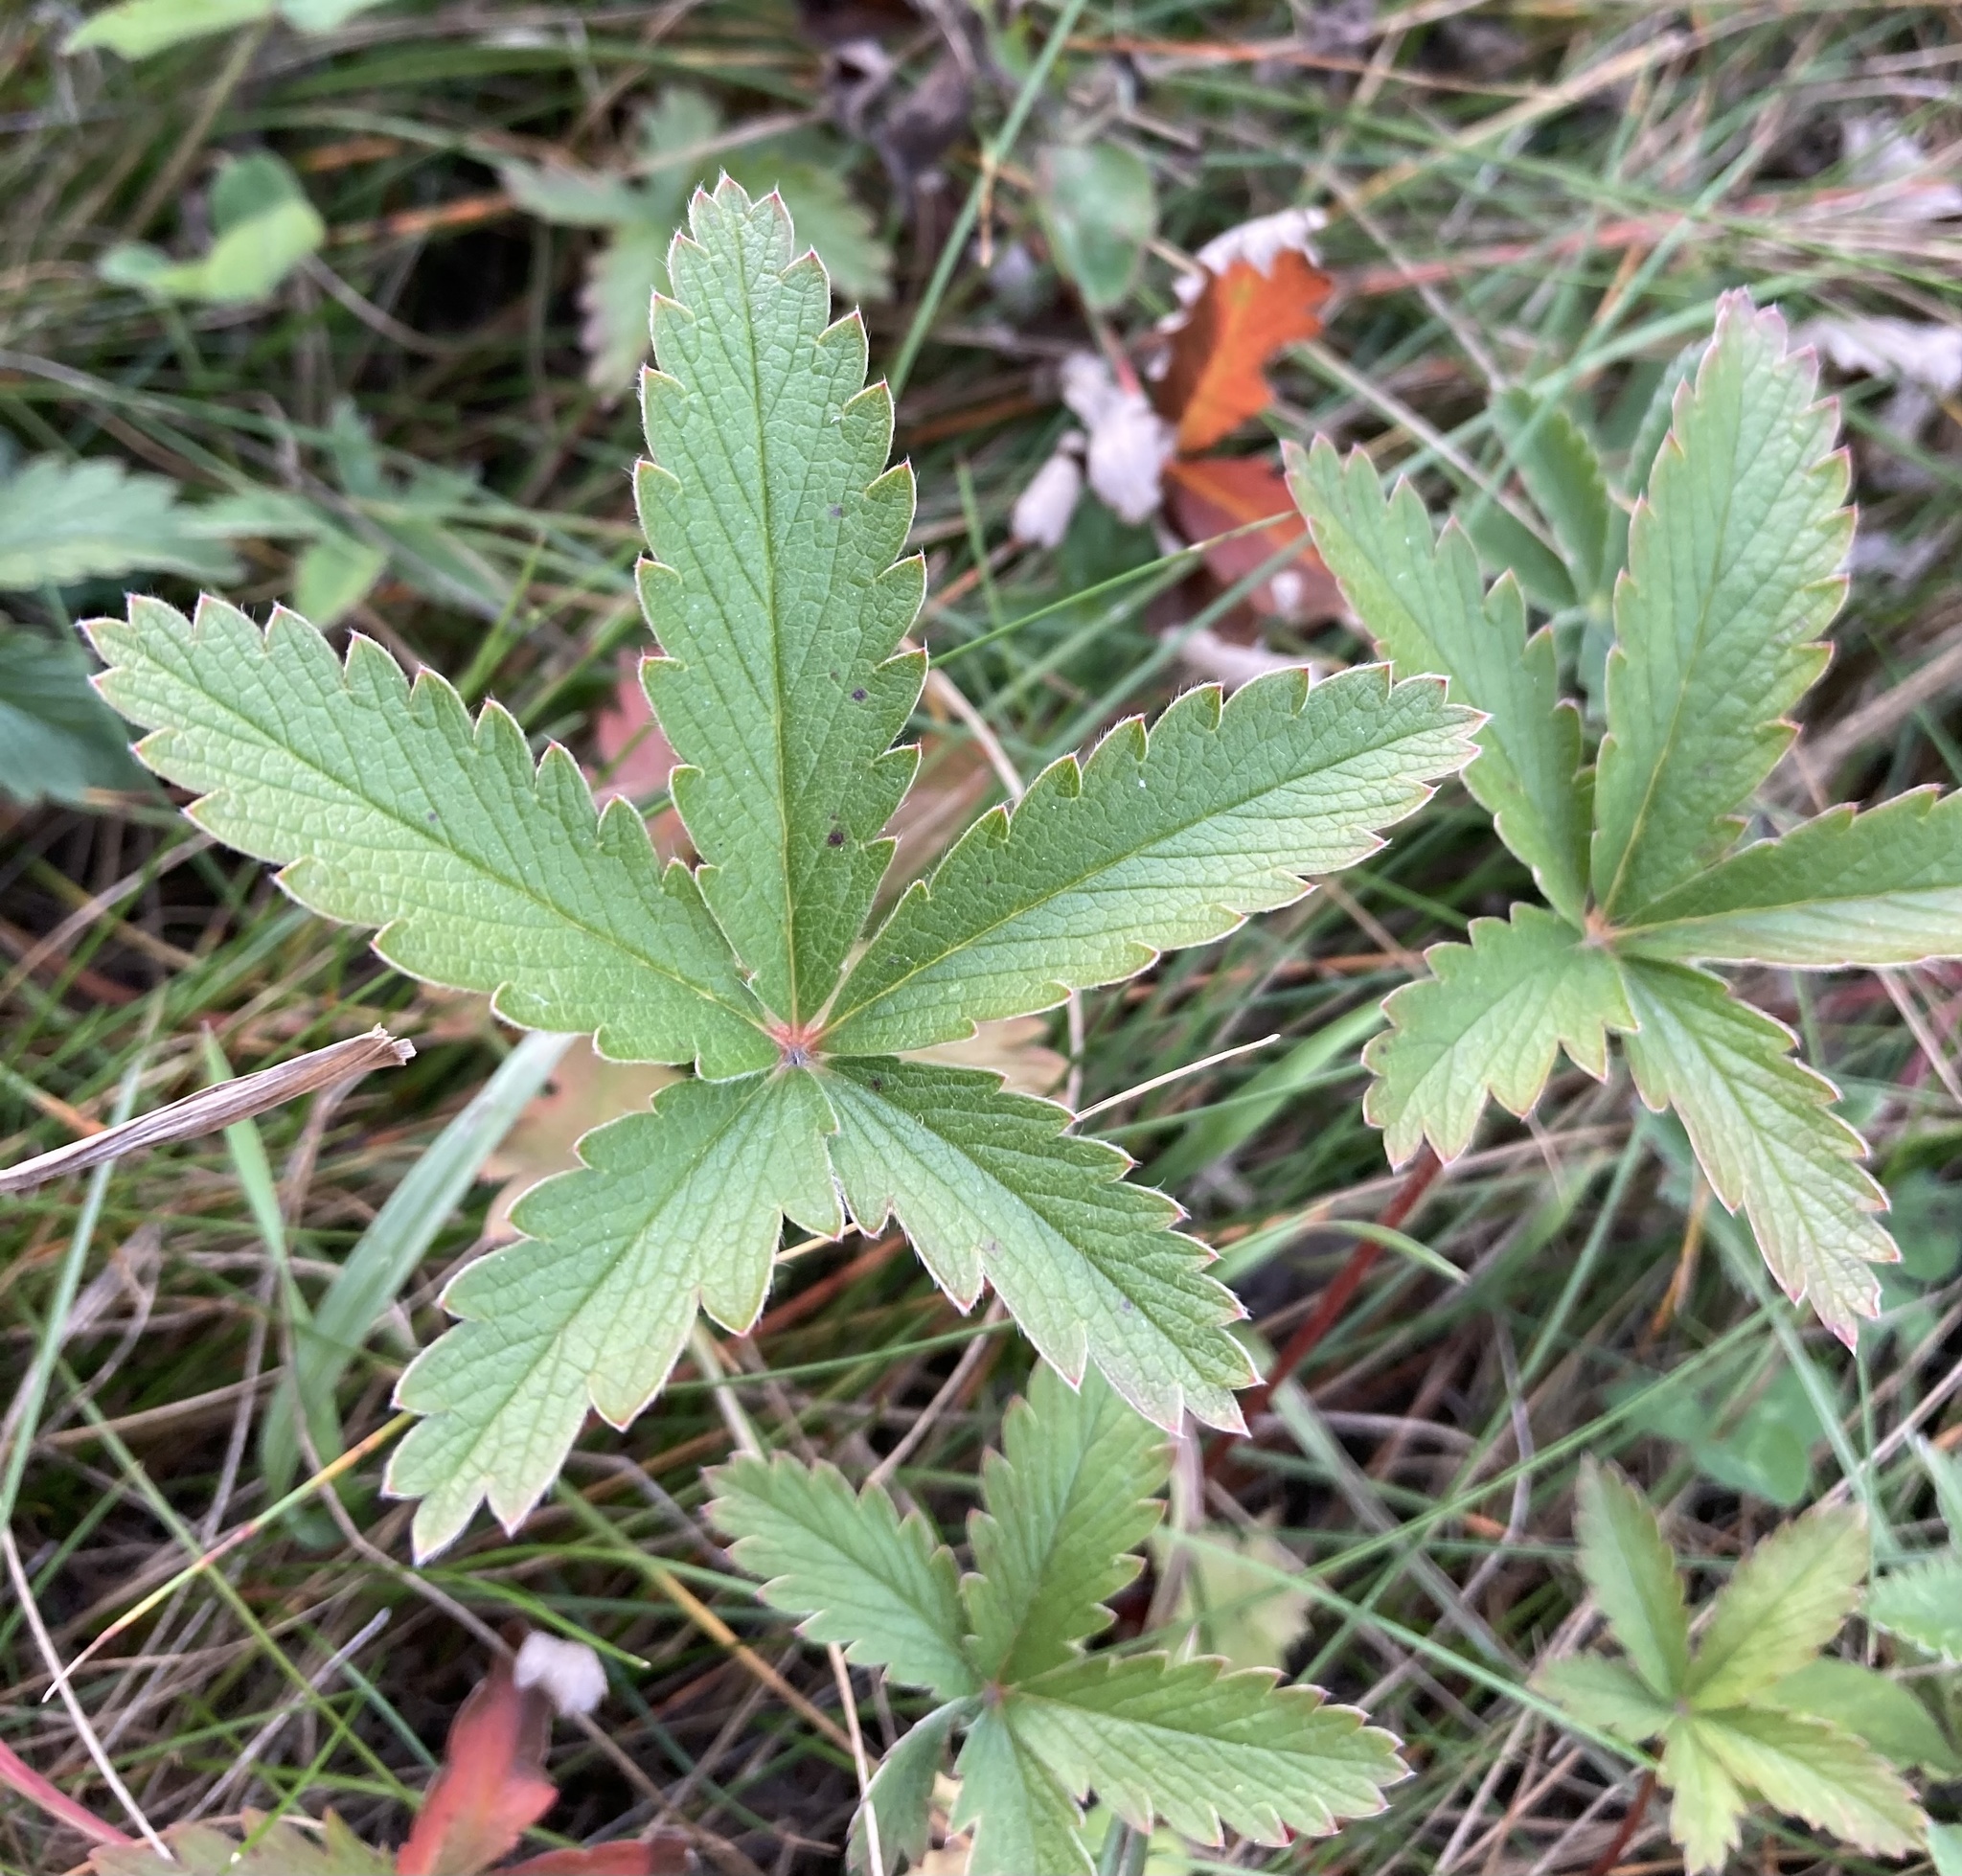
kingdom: Plantae
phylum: Tracheophyta
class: Magnoliopsida
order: Rosales
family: Rosaceae
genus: Potentilla
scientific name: Potentilla pulcherrima
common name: Beautiful cinquefoil
